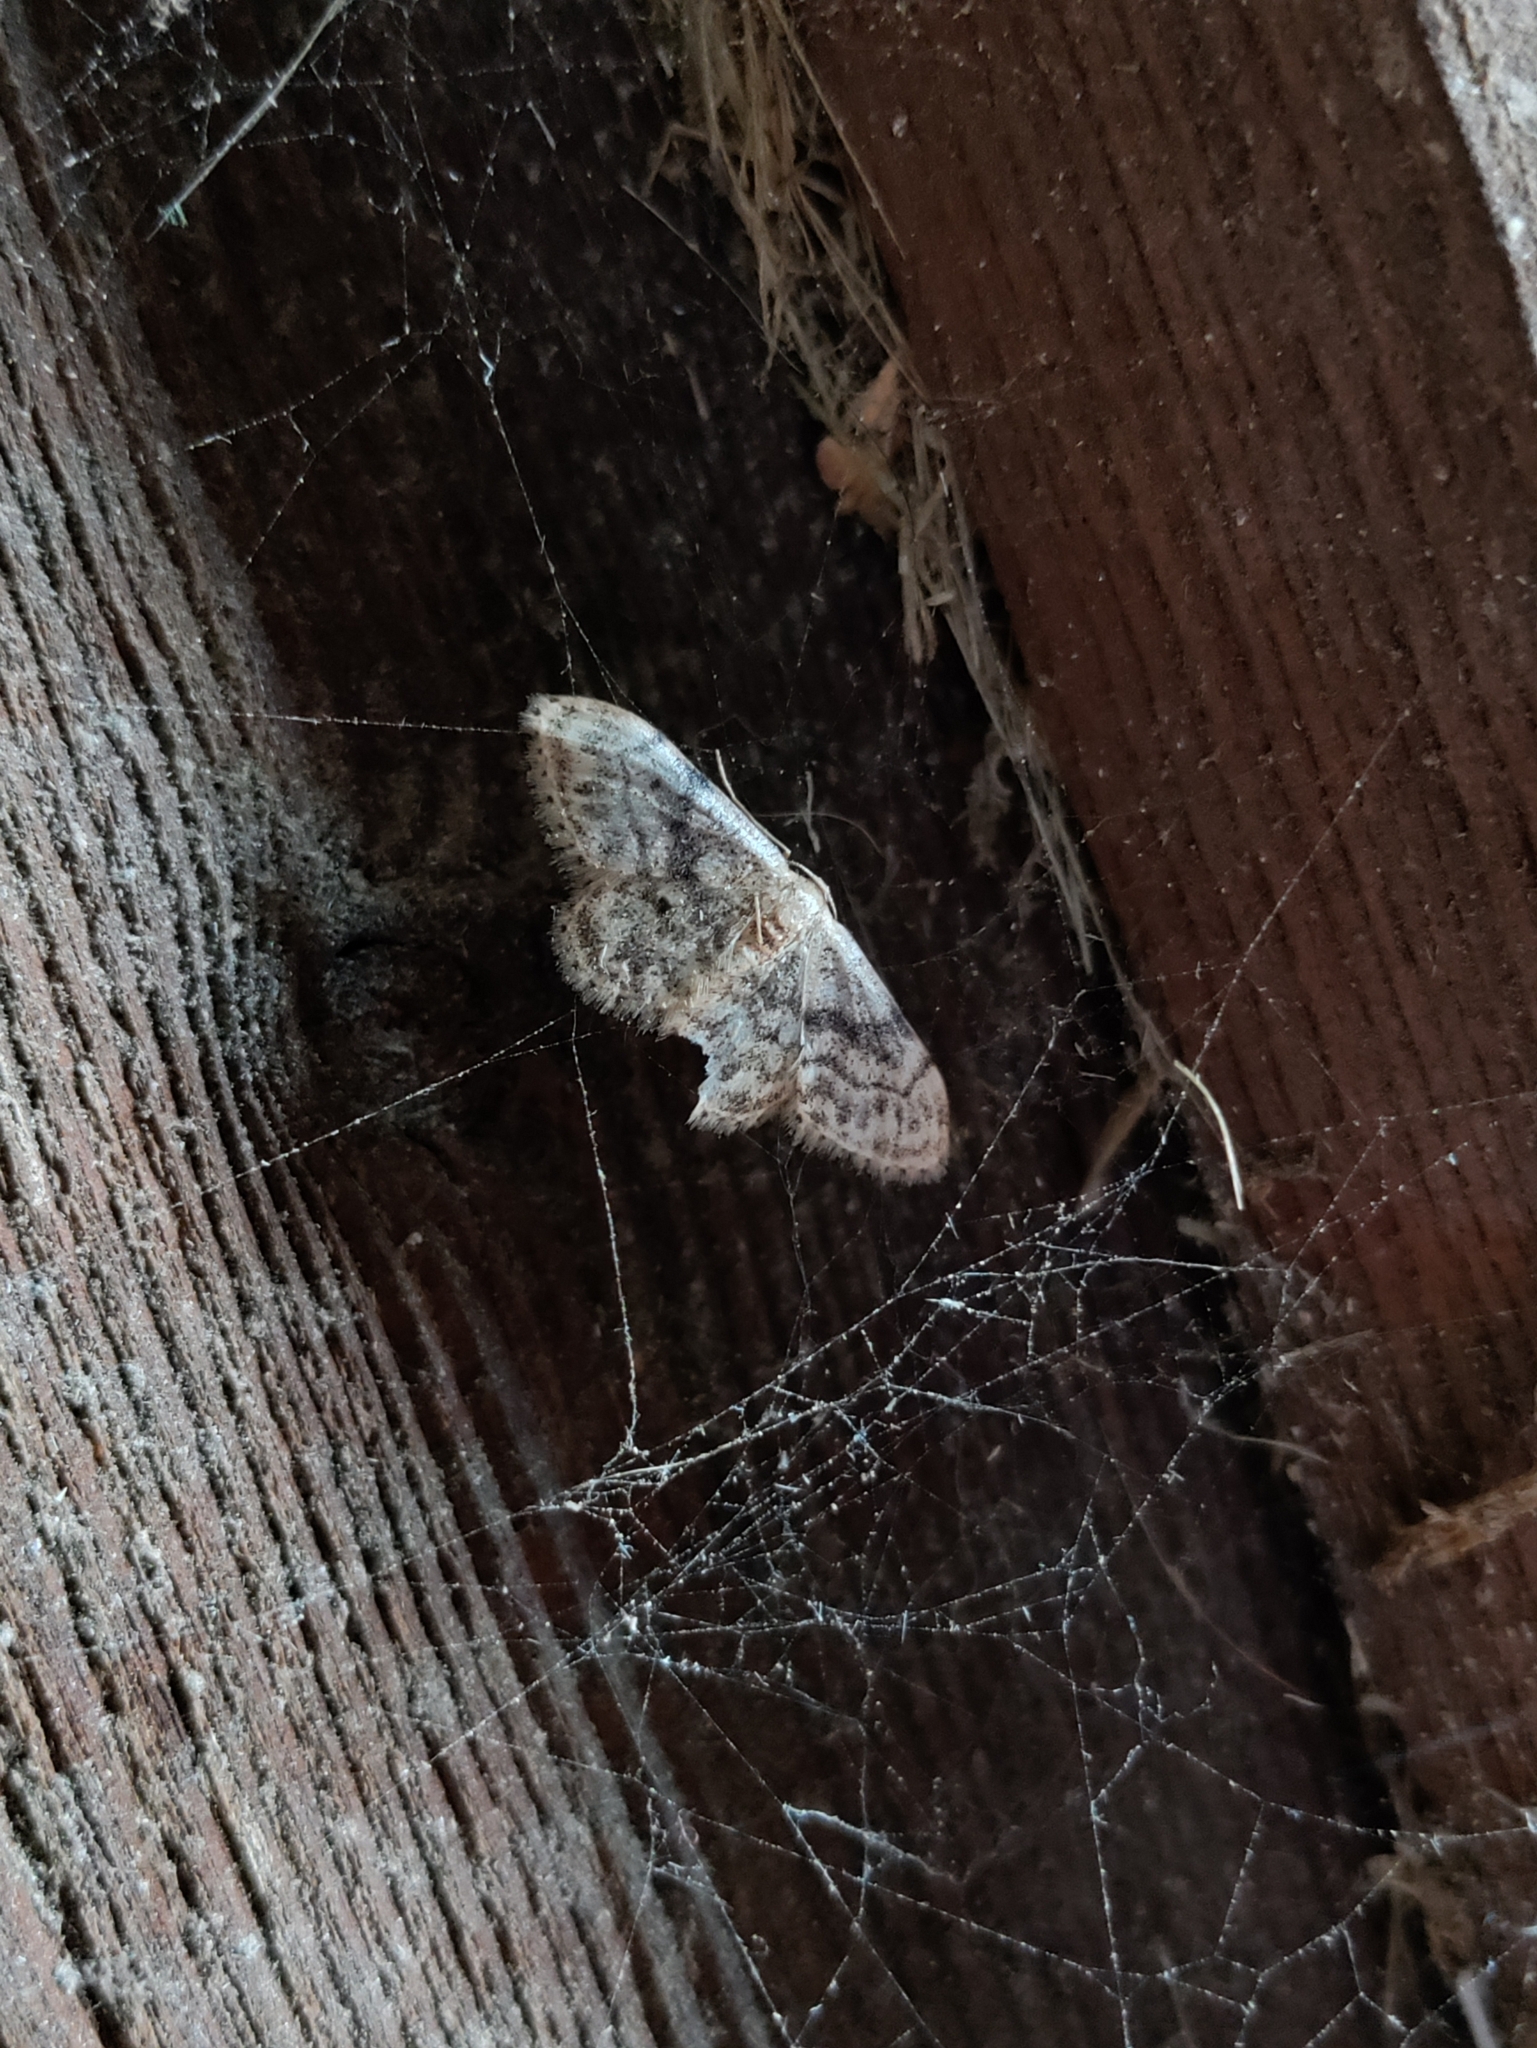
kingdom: Animalia
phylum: Arthropoda
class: Insecta
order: Lepidoptera
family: Geometridae
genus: Idaea
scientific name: Idaea inquinata
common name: Rusty wave
